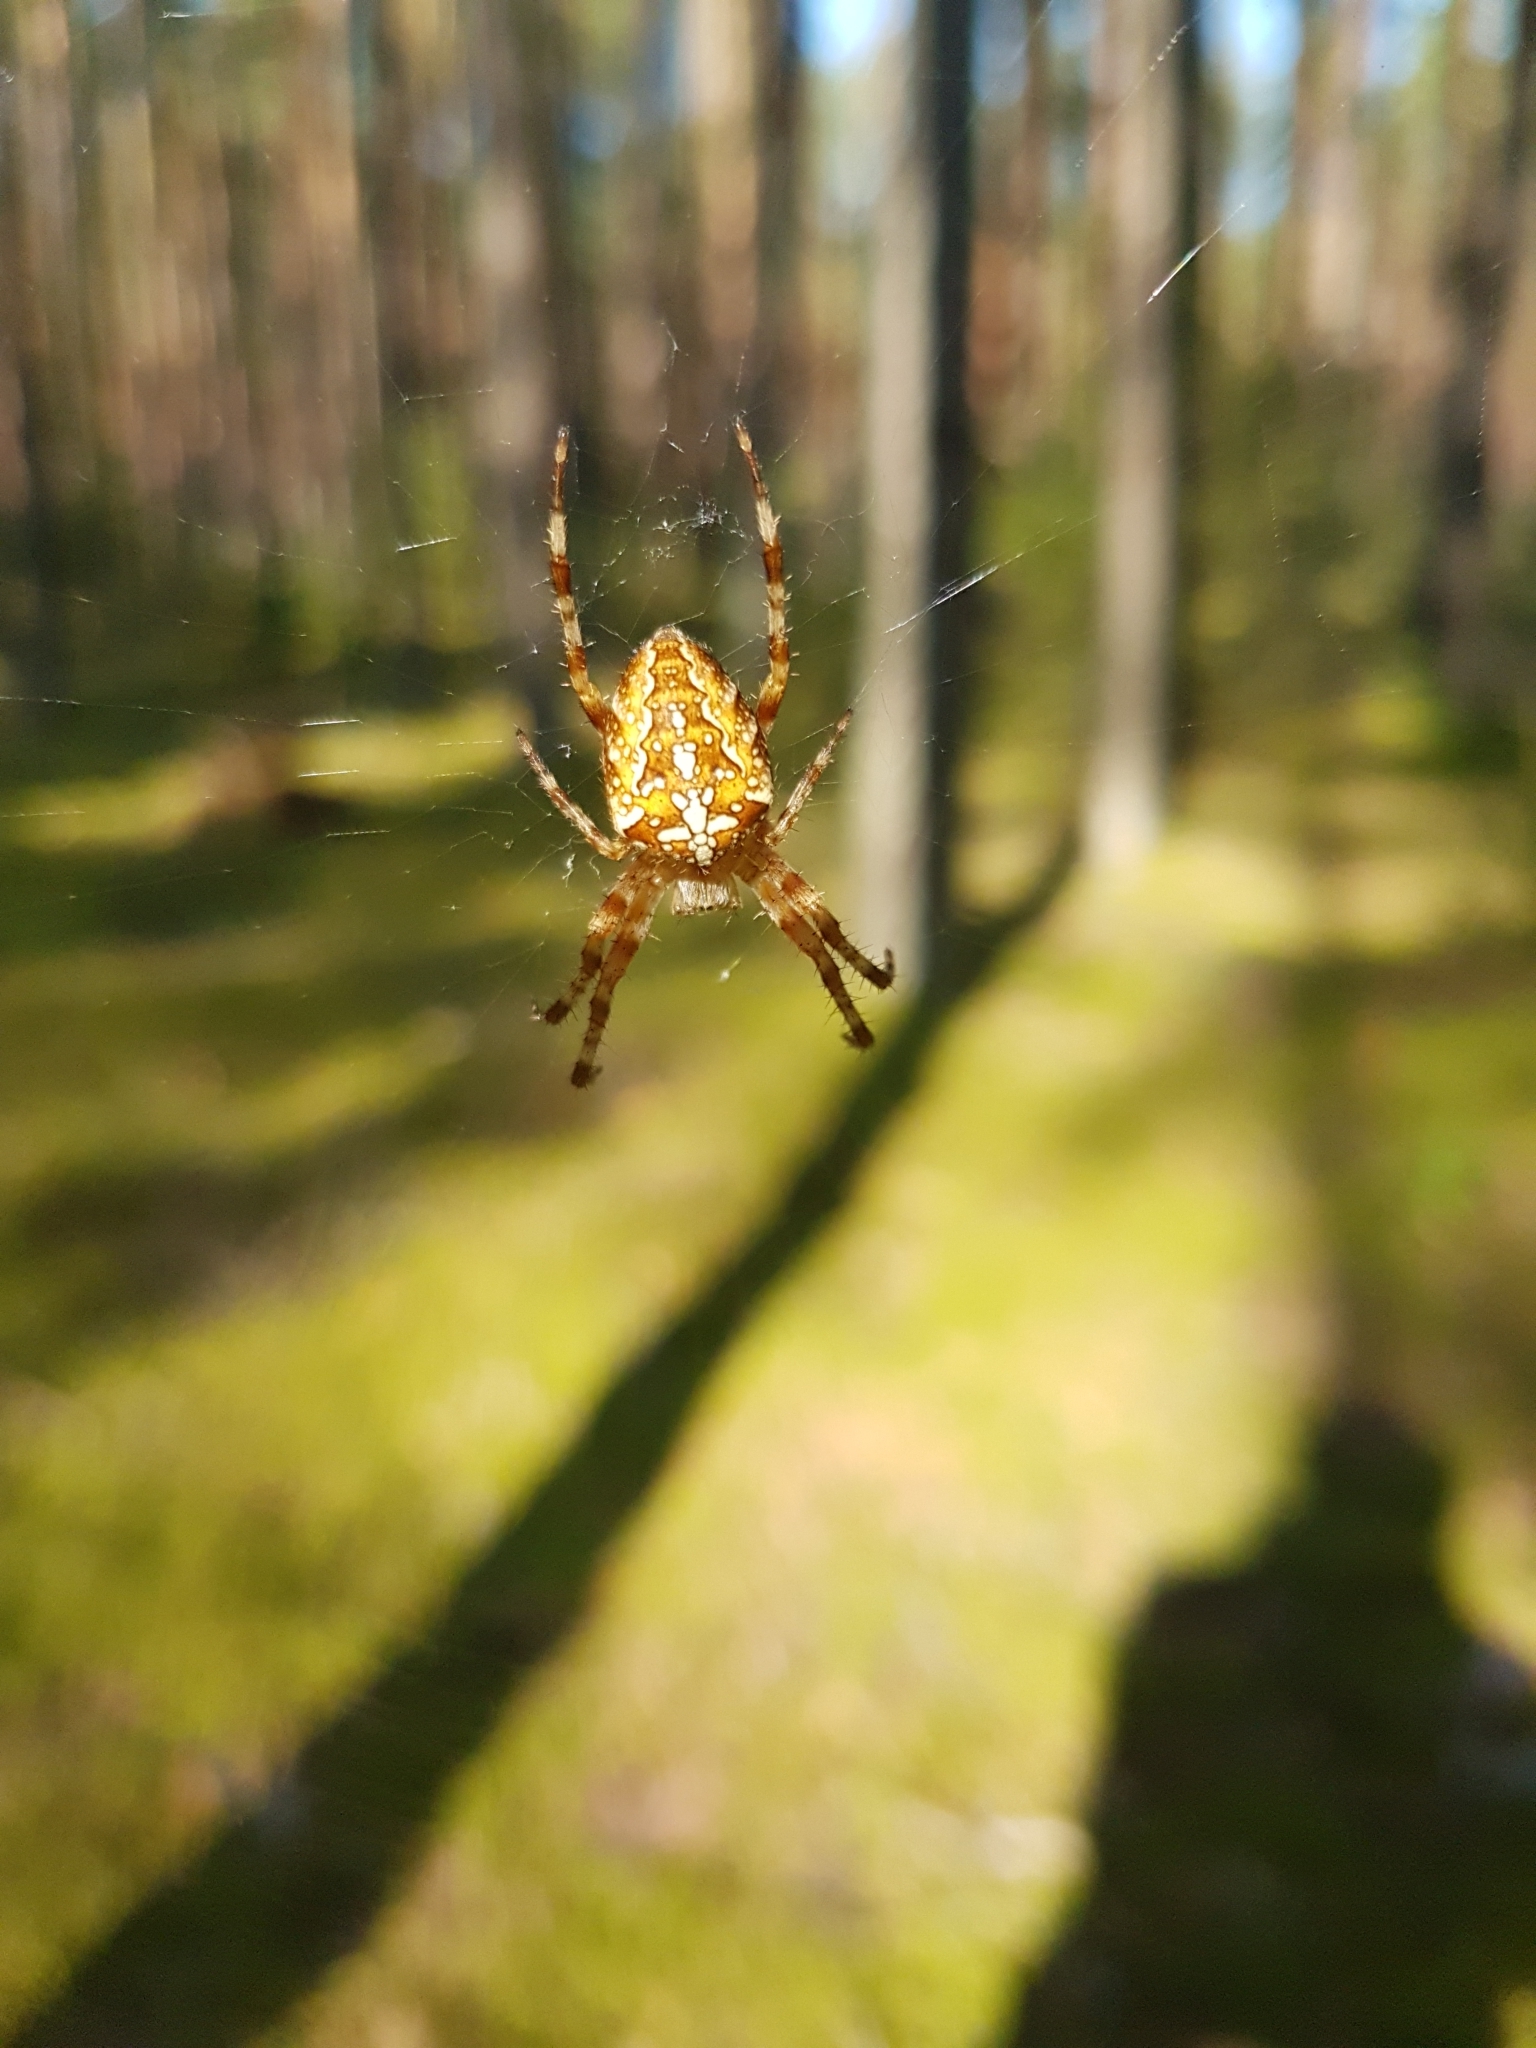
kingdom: Animalia
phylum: Arthropoda
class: Arachnida
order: Araneae
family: Araneidae
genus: Araneus
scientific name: Araneus diadematus
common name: Cross orbweaver
